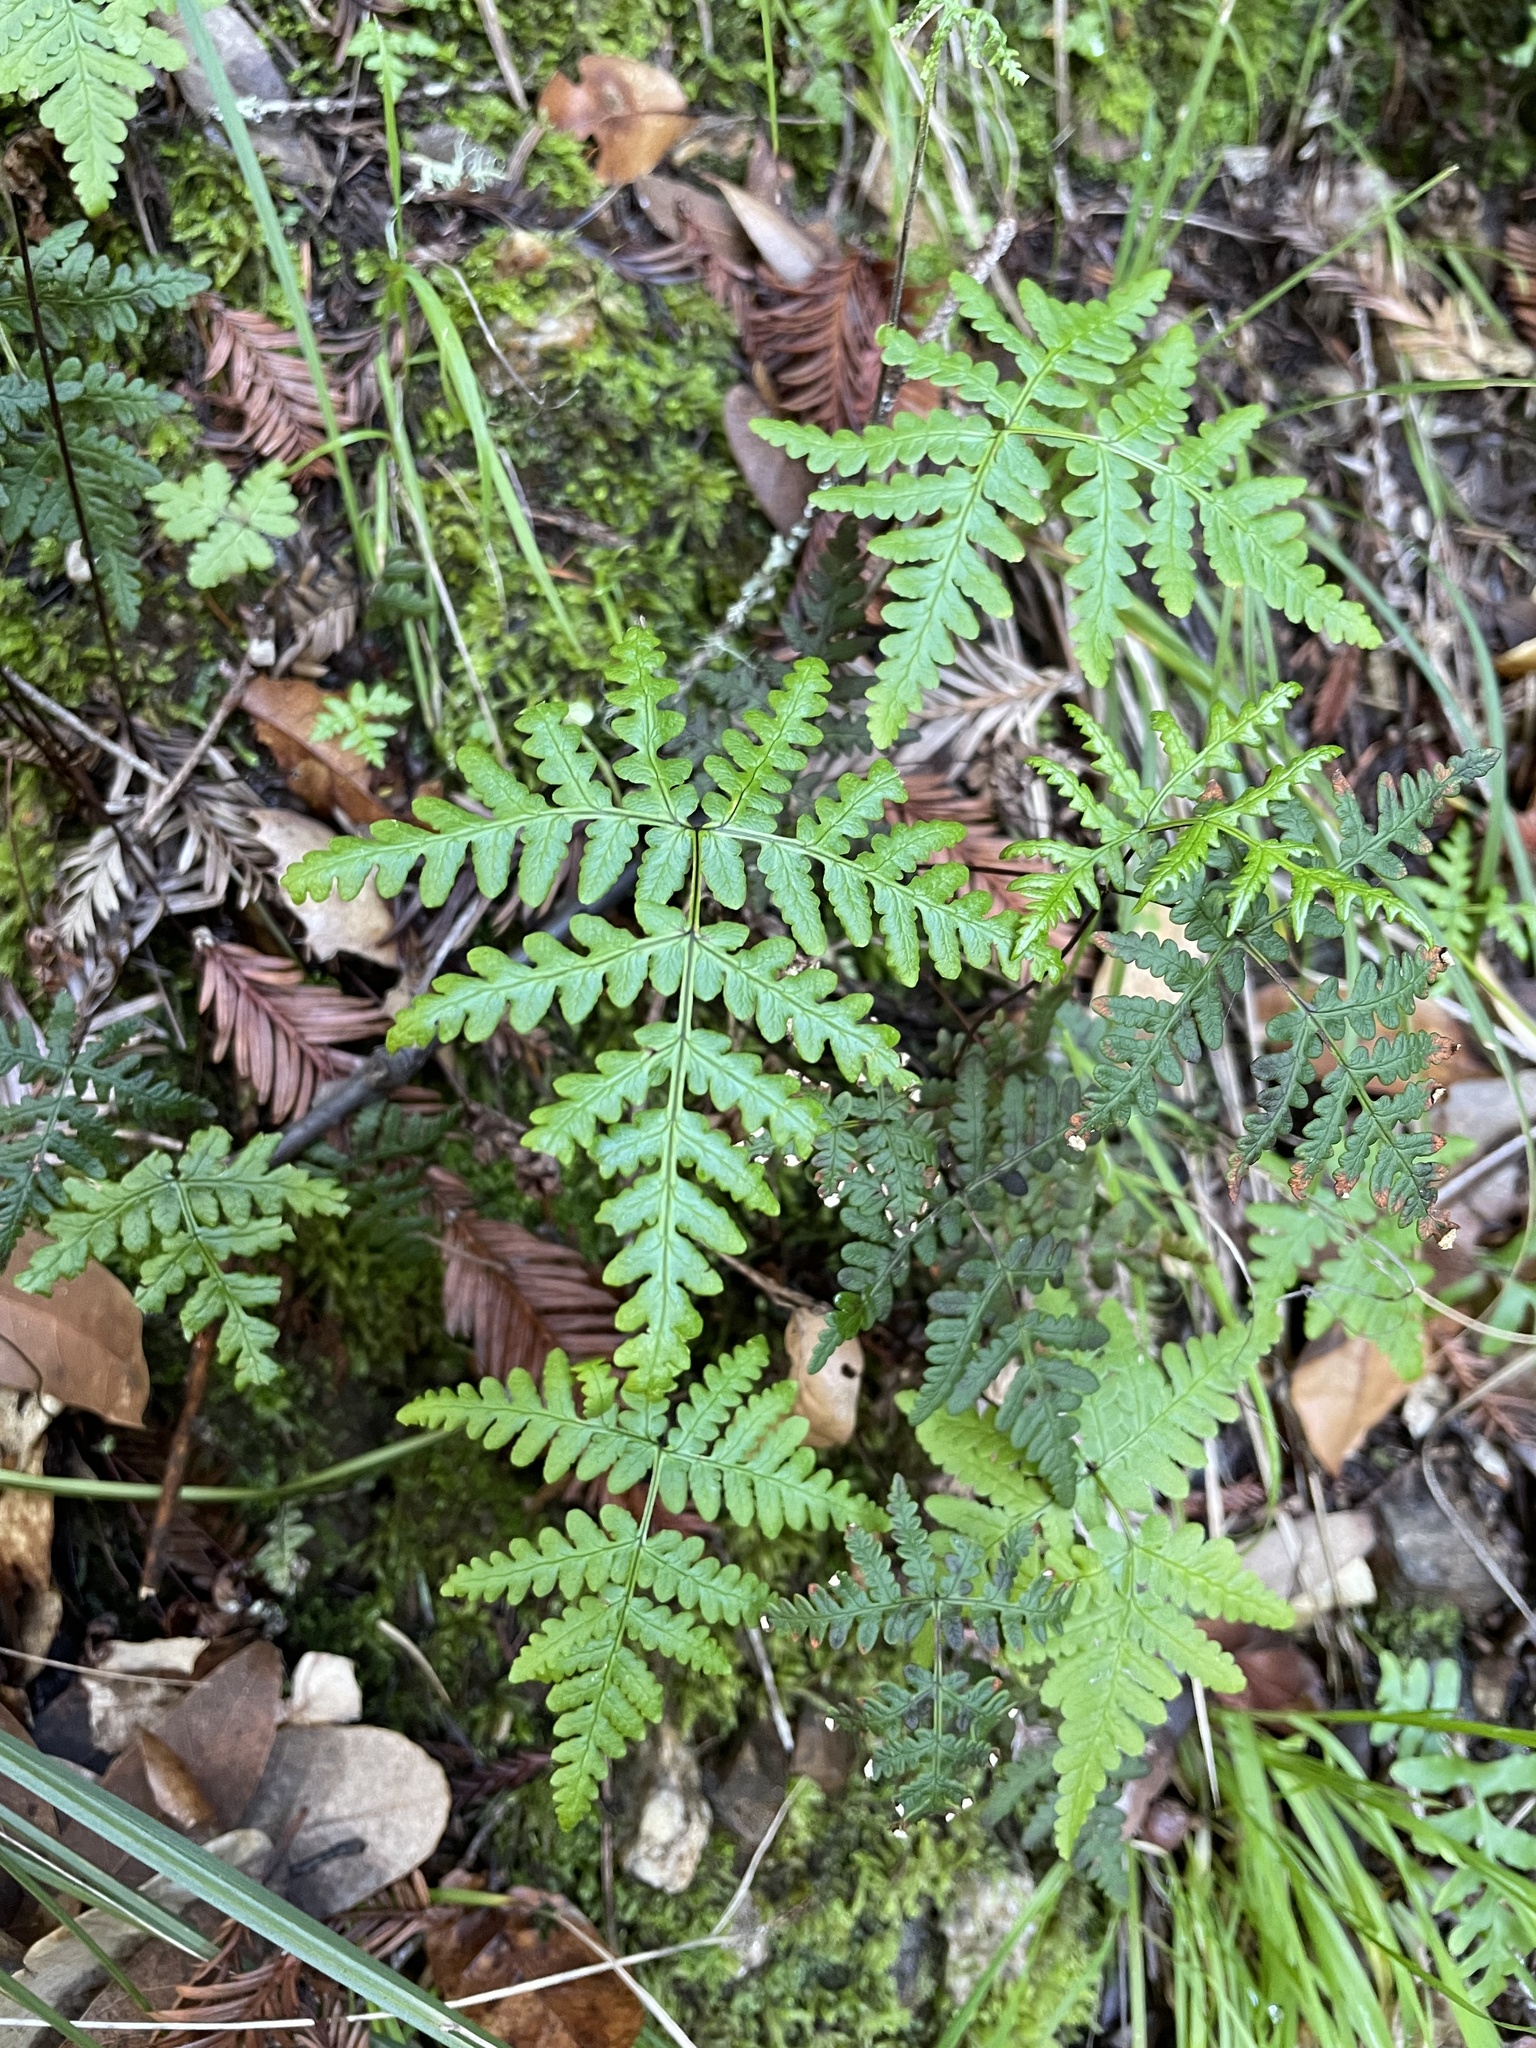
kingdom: Plantae
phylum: Tracheophyta
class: Polypodiopsida
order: Polypodiales
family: Pteridaceae
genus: Pentagramma
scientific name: Pentagramma triangularis
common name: Gold fern
